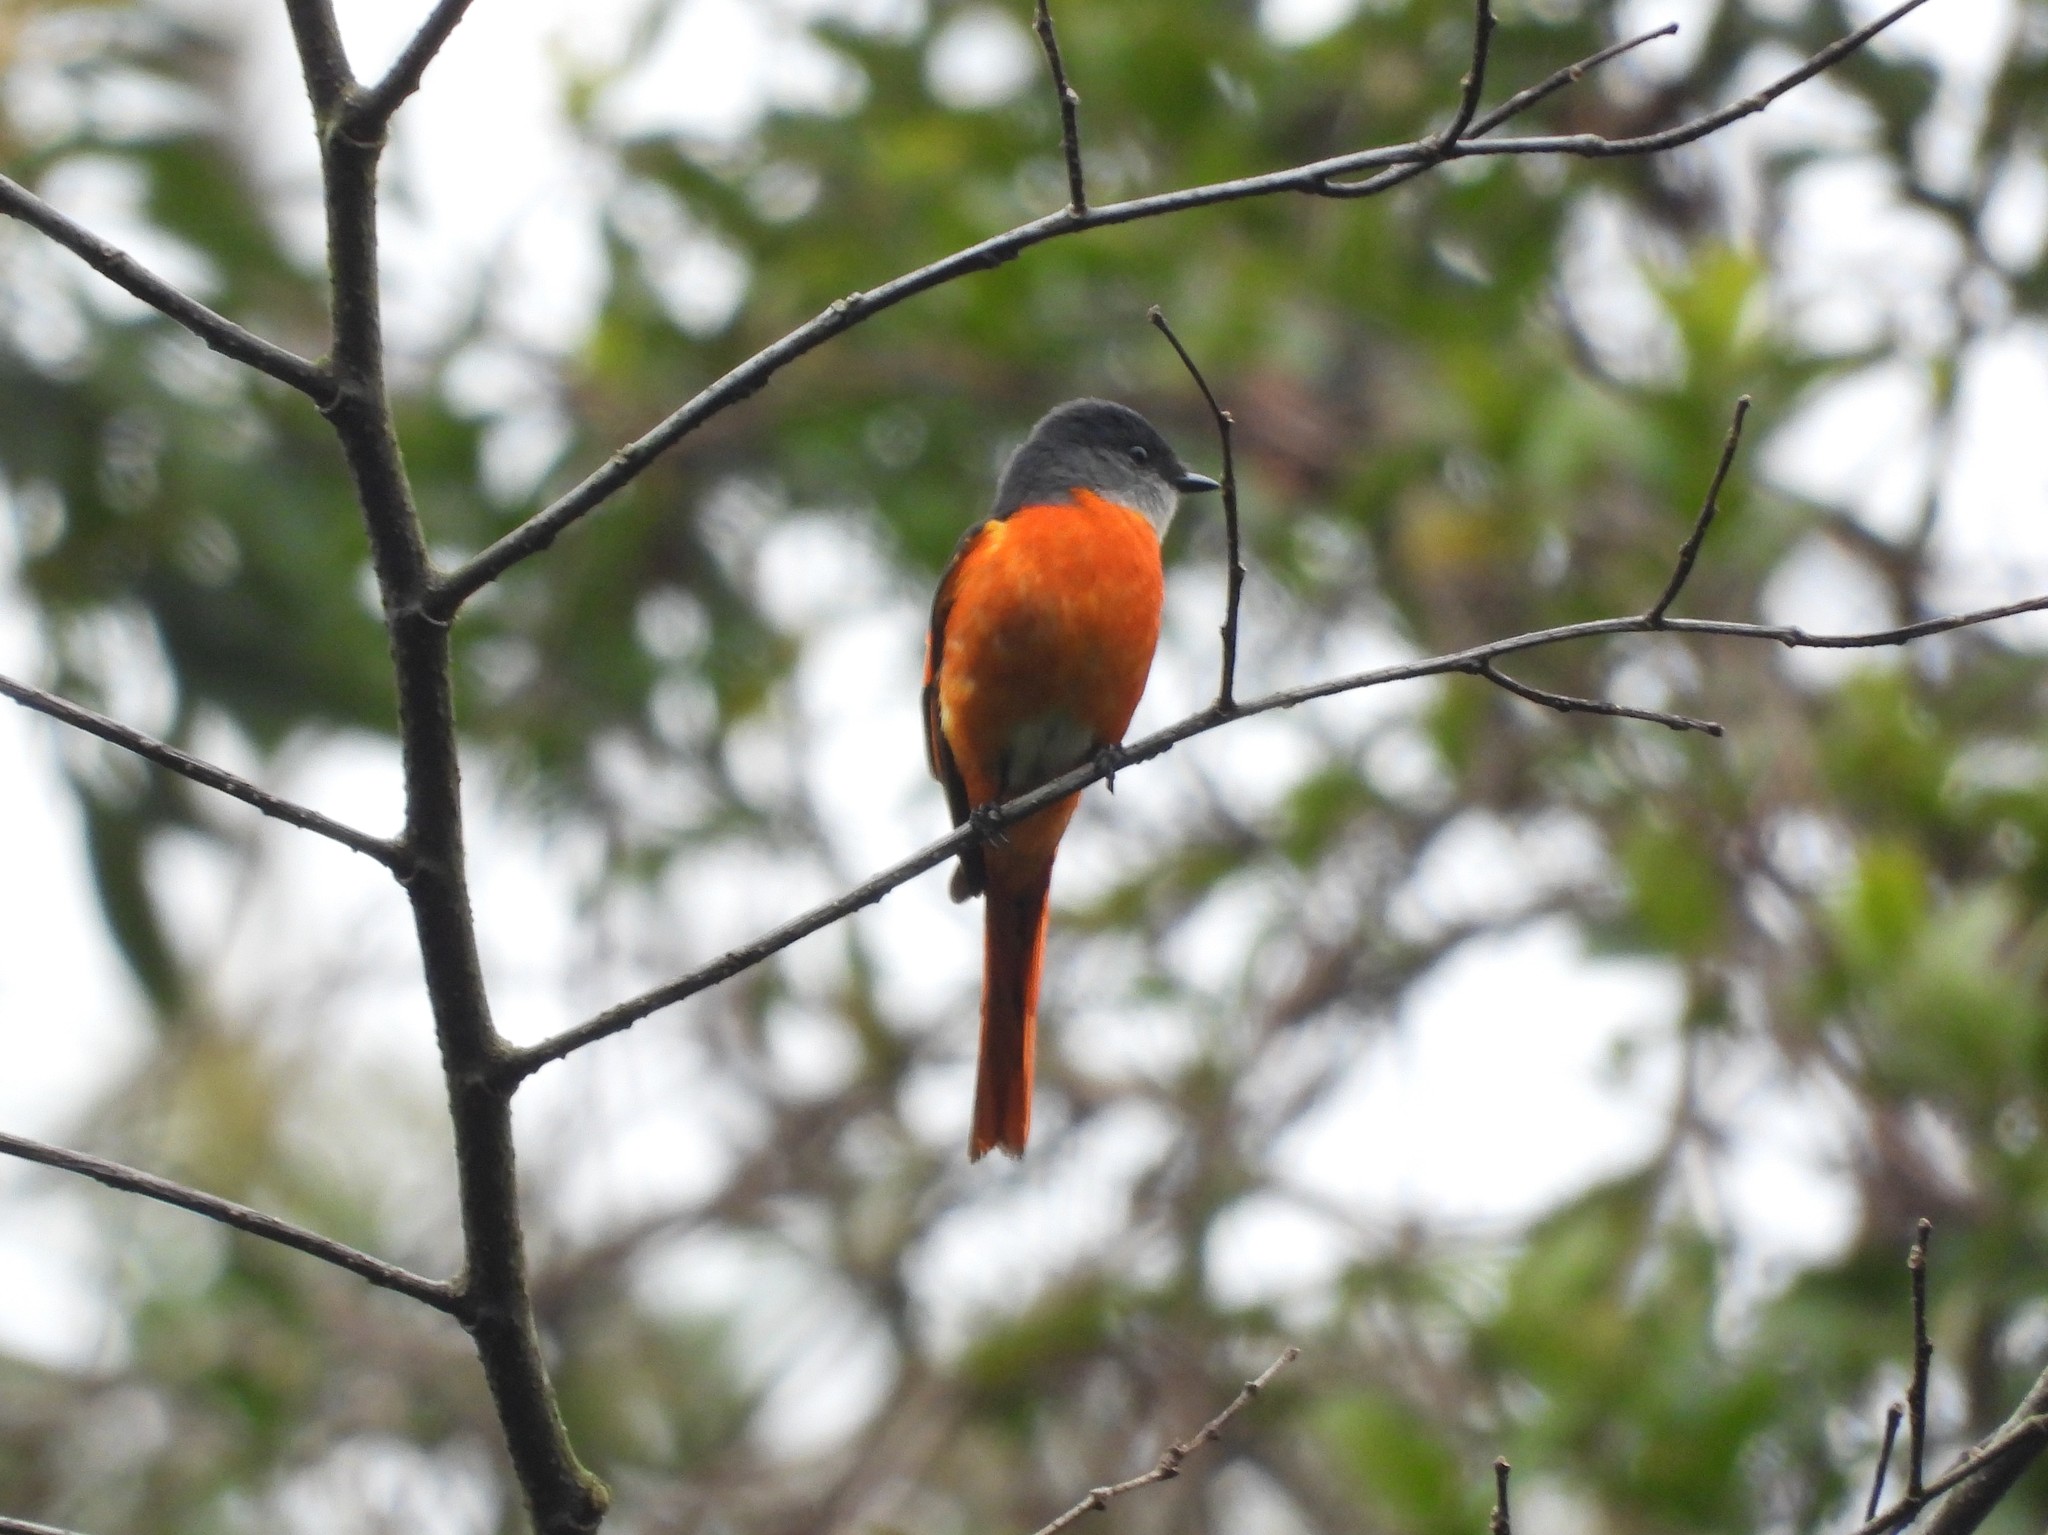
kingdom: Animalia
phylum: Chordata
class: Aves
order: Passeriformes
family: Campephagidae
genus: Pericrocotus
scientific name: Pericrocotus solaris
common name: Grey-chinned minivet
